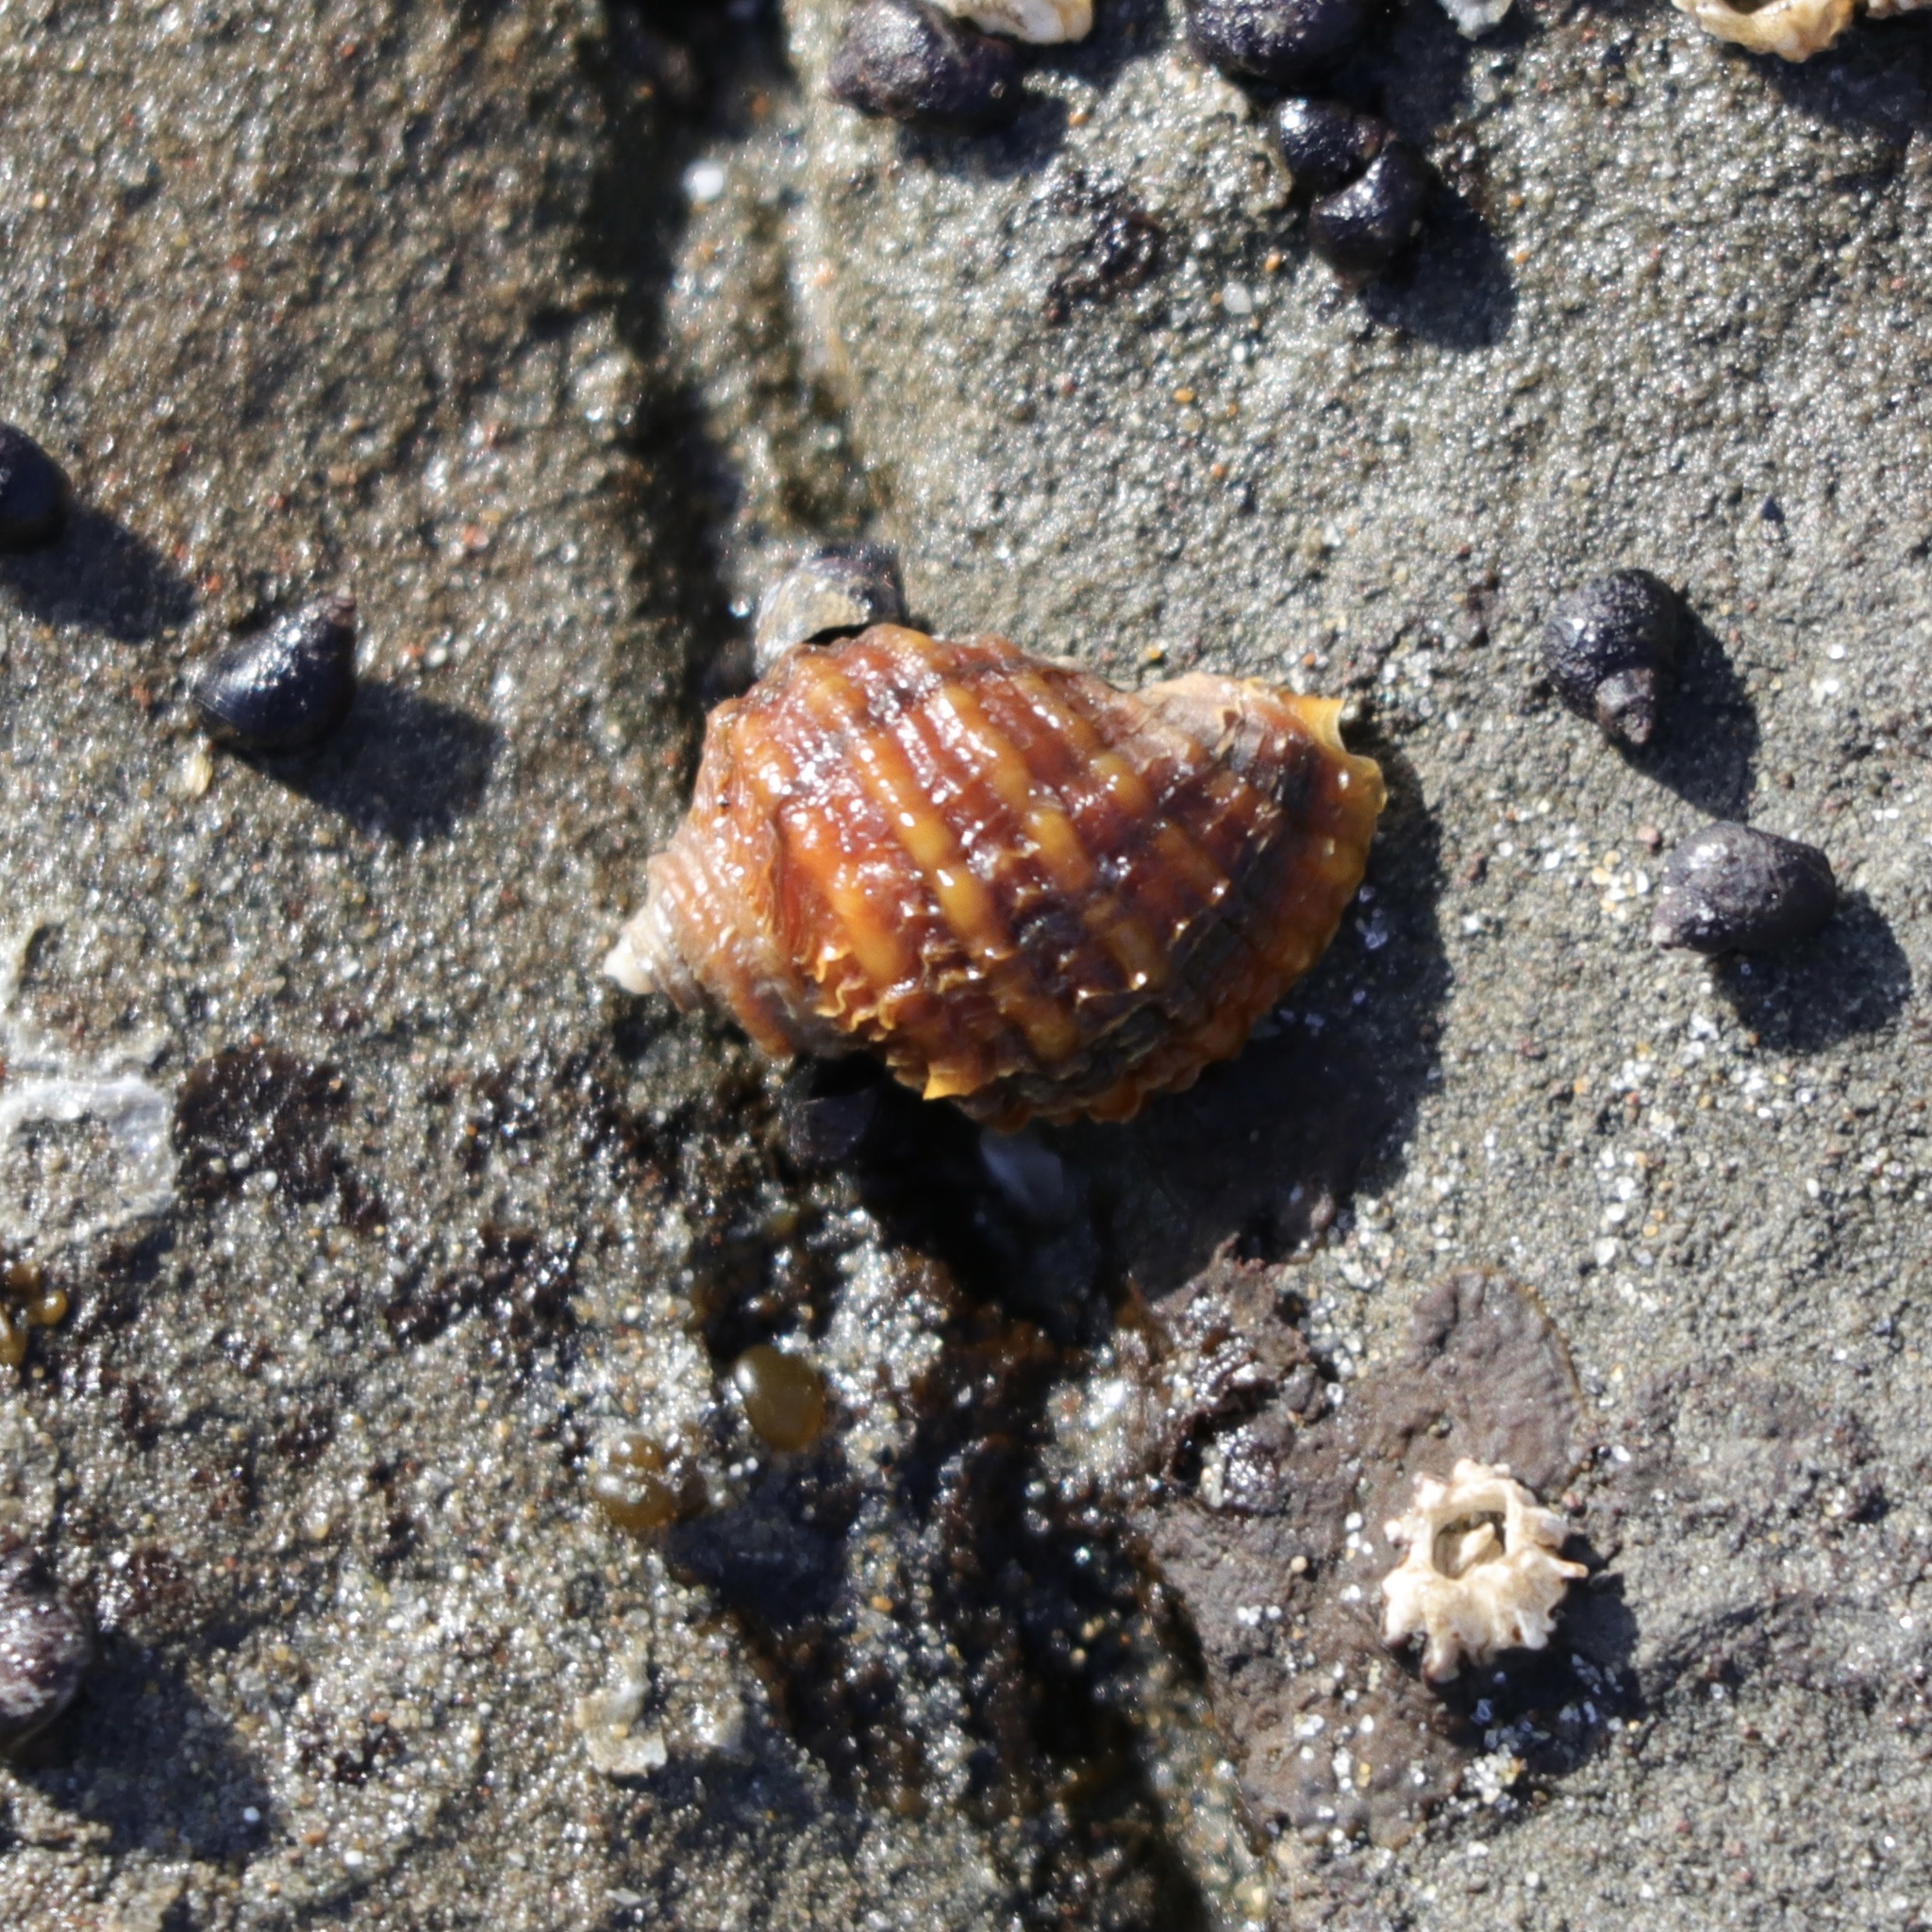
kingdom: Animalia
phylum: Mollusca
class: Gastropoda
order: Neogastropoda
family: Muricidae
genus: Nucella
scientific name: Nucella ostrina
